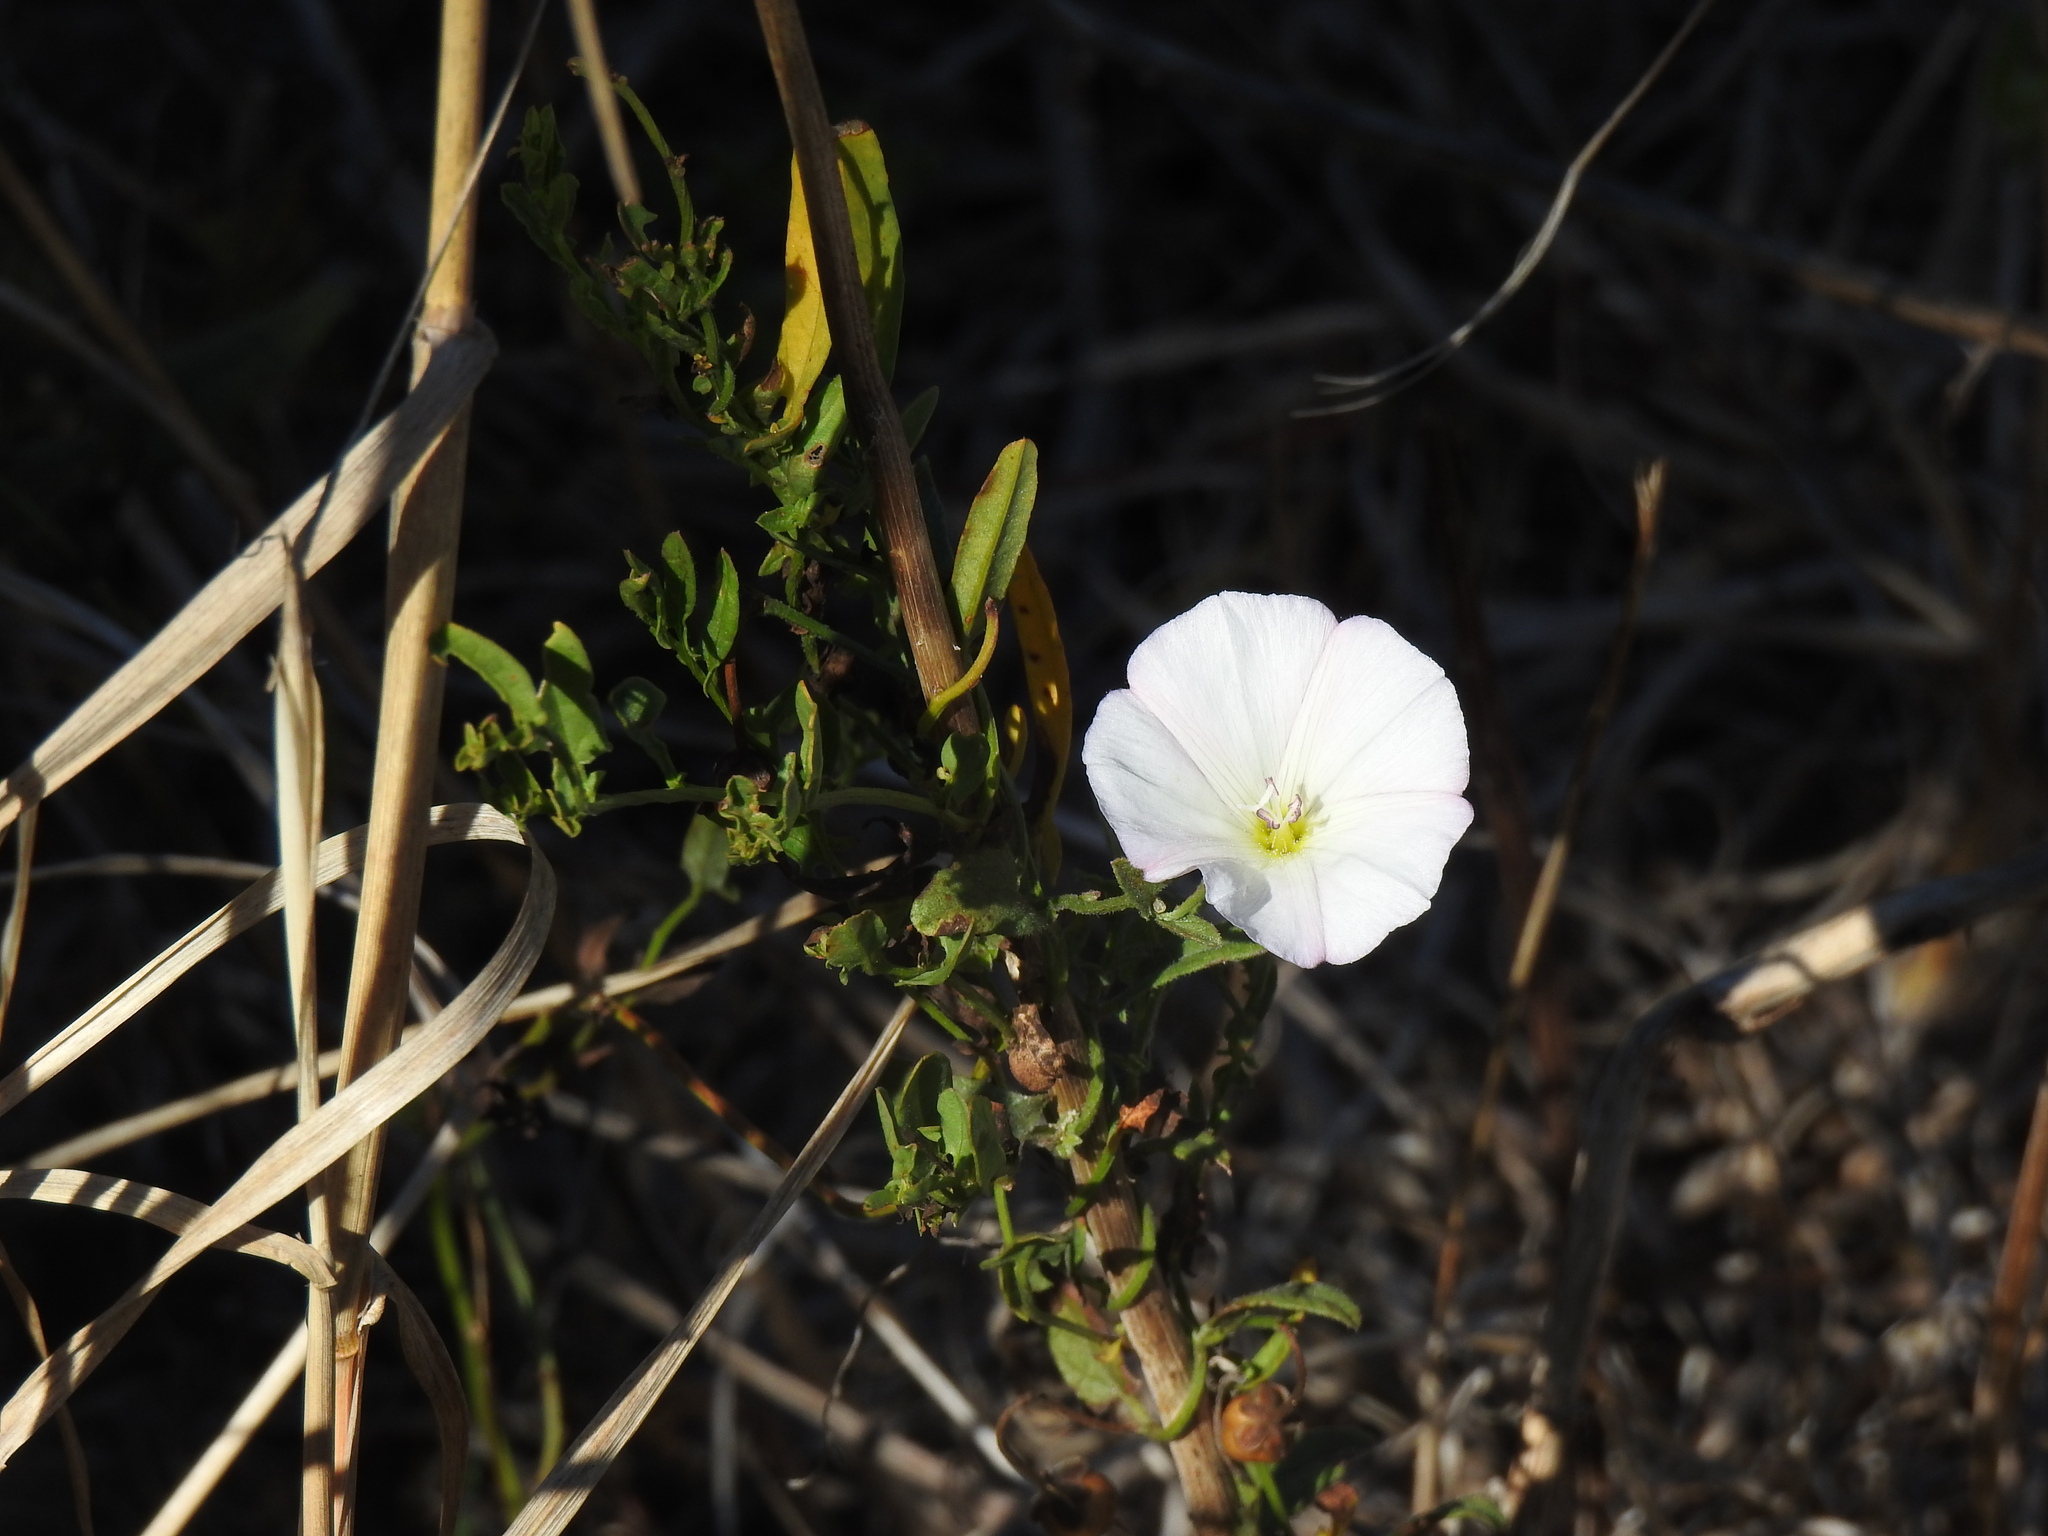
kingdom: Plantae
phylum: Tracheophyta
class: Magnoliopsida
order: Solanales
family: Convolvulaceae
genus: Convolvulus
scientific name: Convolvulus arvensis
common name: Field bindweed
